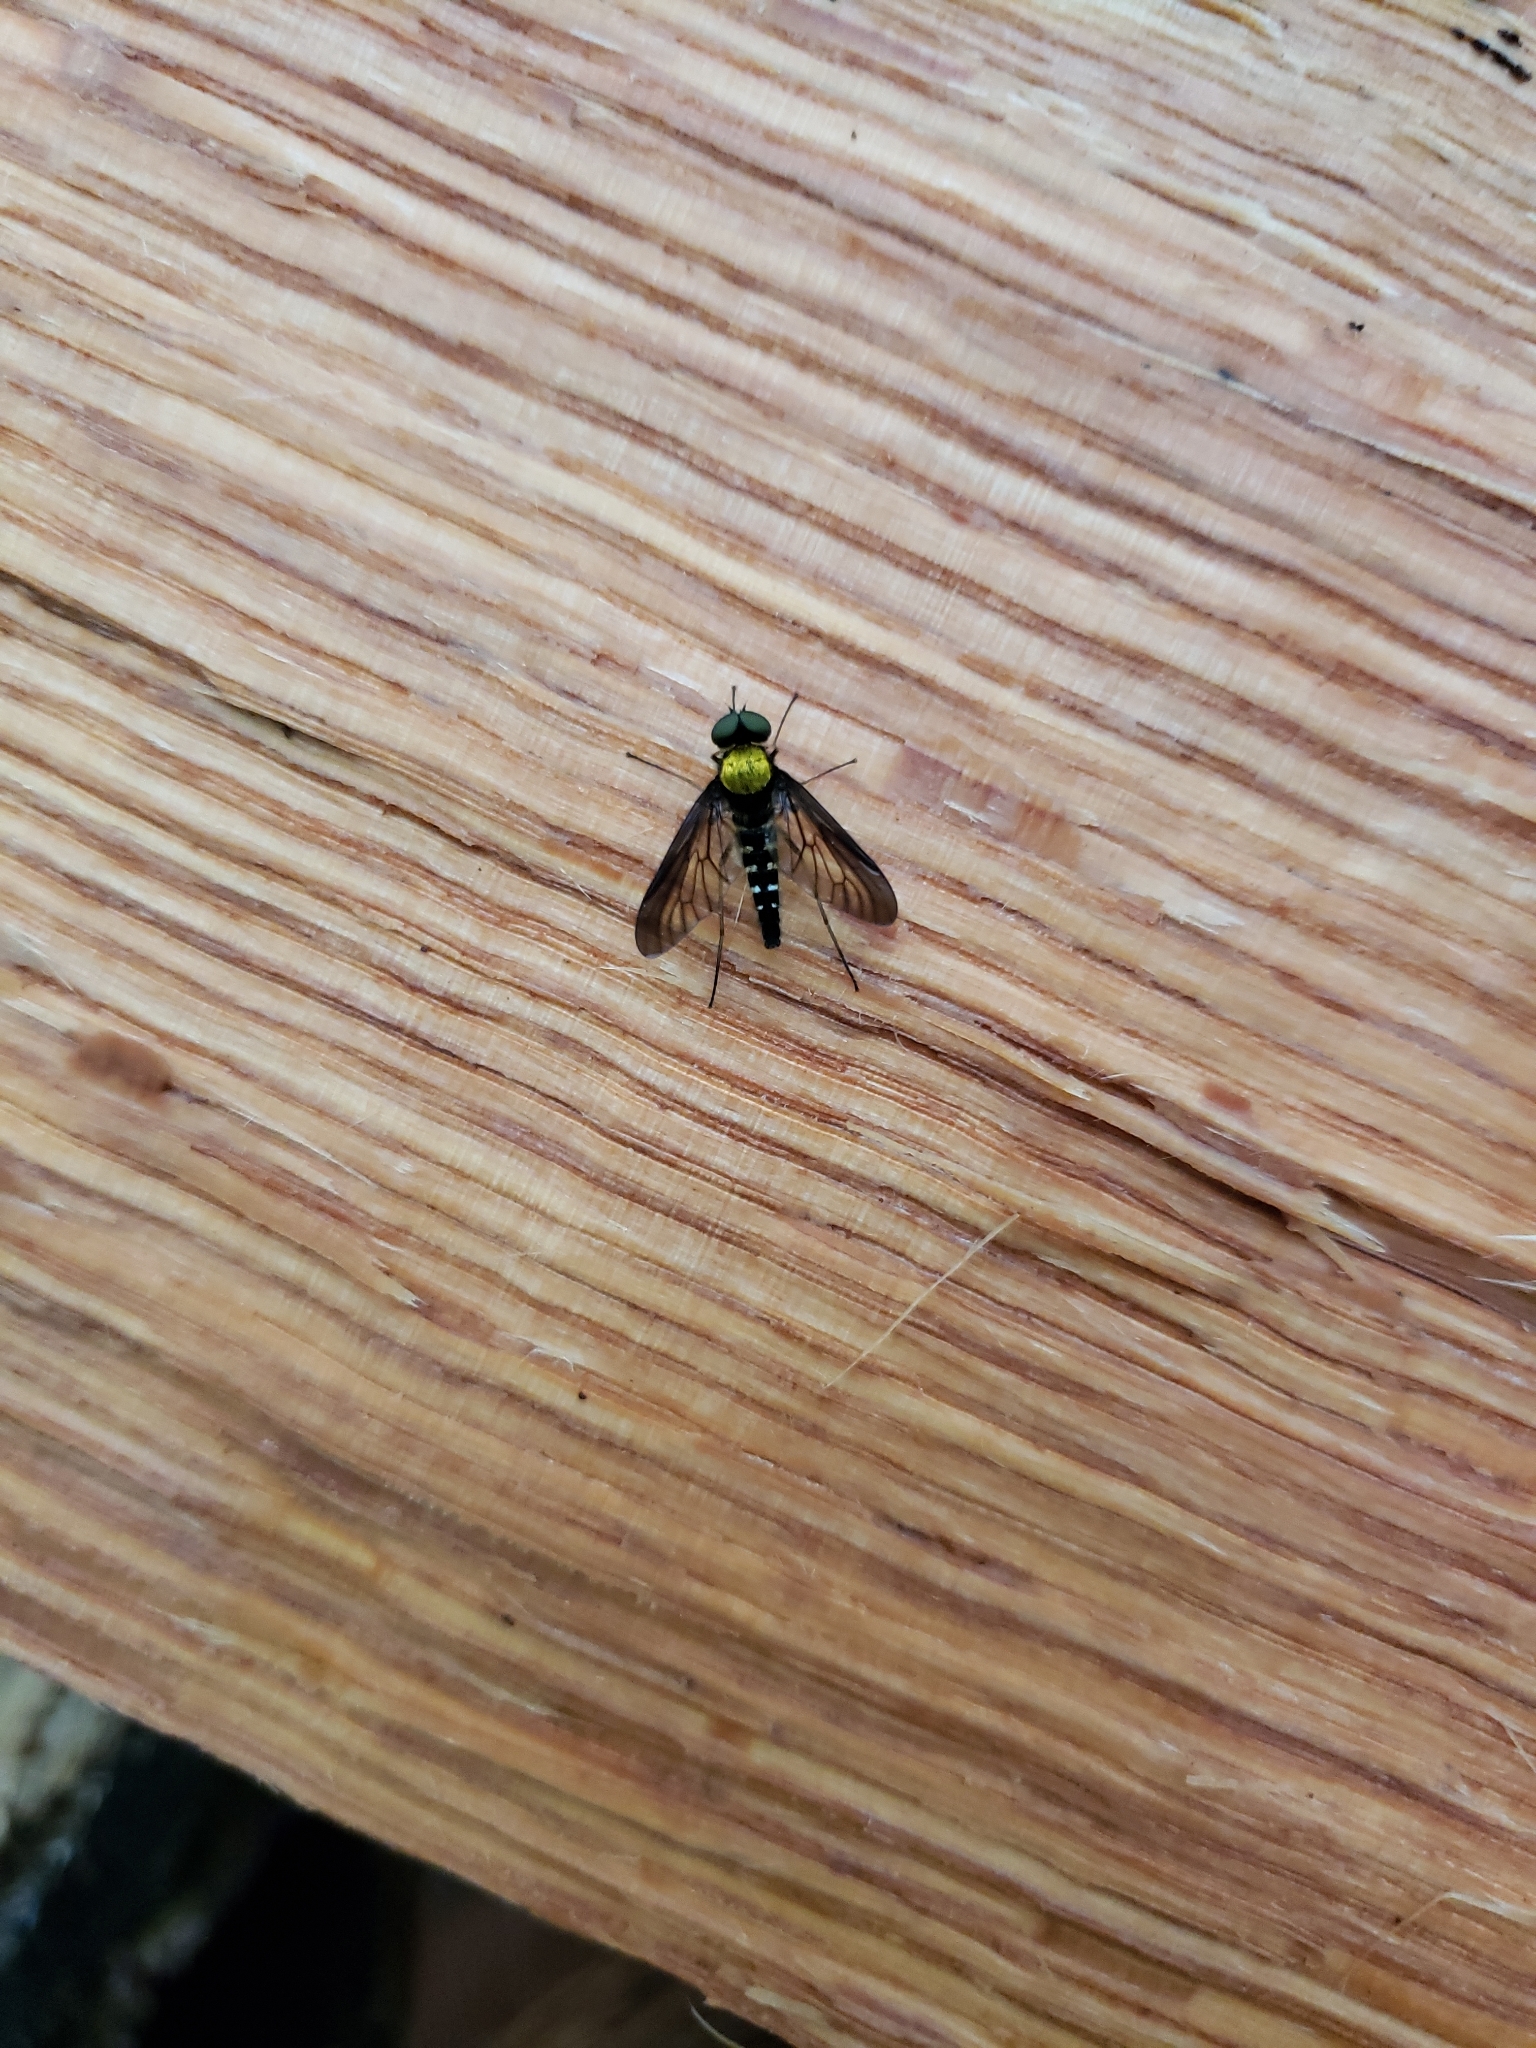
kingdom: Animalia
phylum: Arthropoda
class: Insecta
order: Diptera
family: Rhagionidae
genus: Chrysopilus
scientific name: Chrysopilus thoracicus
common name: Golden-backed snipe fly
